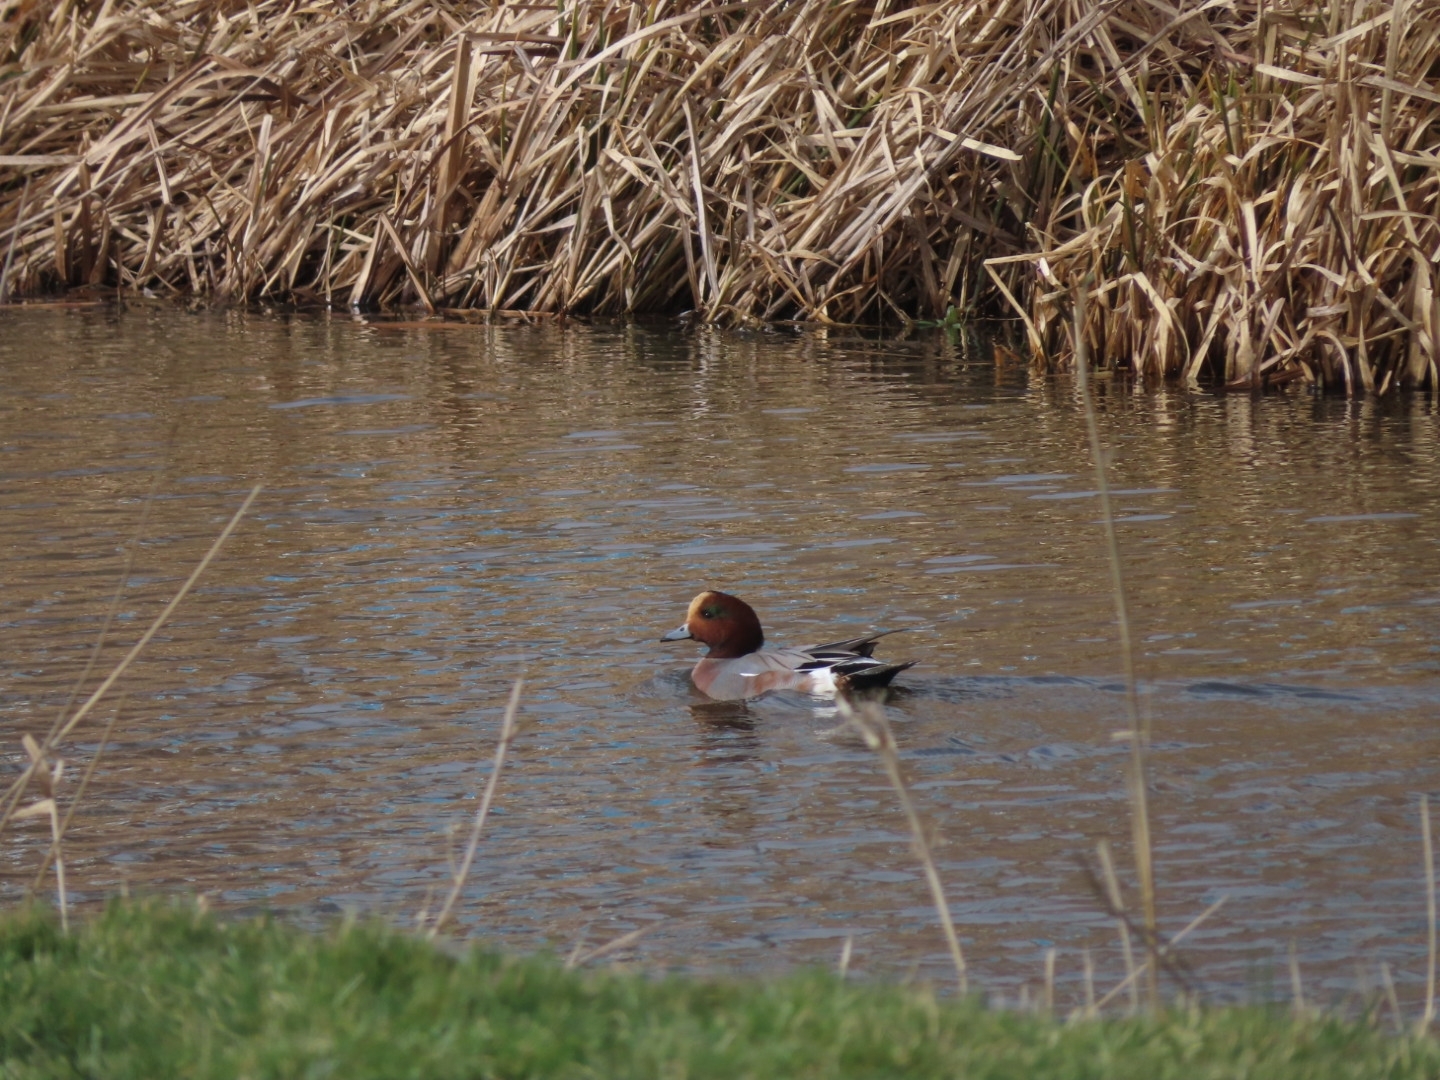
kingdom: Animalia
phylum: Chordata
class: Aves
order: Anseriformes
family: Anatidae
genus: Mareca
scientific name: Mareca penelope
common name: Eurasian wigeon
